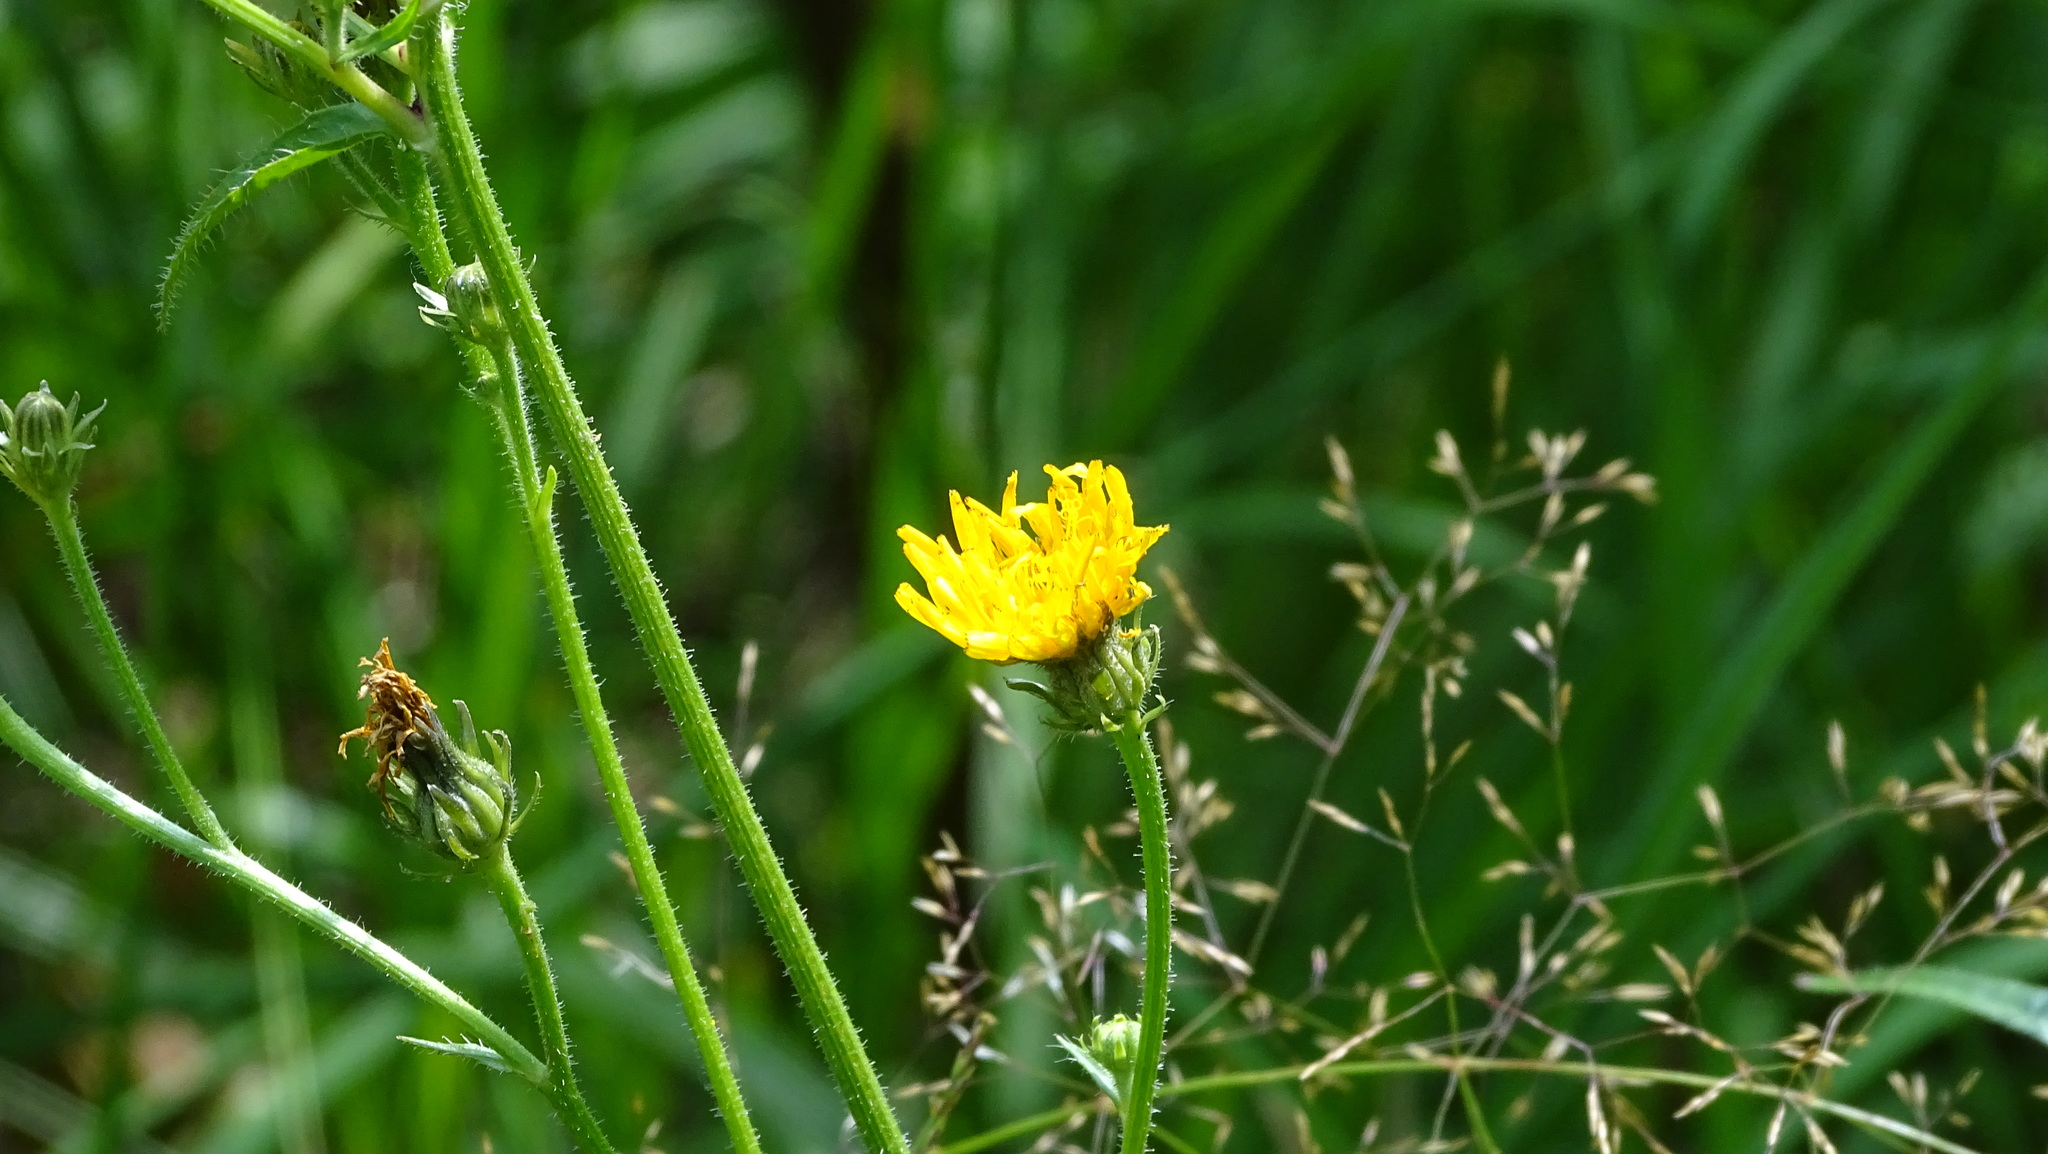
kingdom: Plantae
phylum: Tracheophyta
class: Magnoliopsida
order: Asterales
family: Asteraceae
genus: Picris
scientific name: Picris hieracioides
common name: Hawkweed oxtongue
